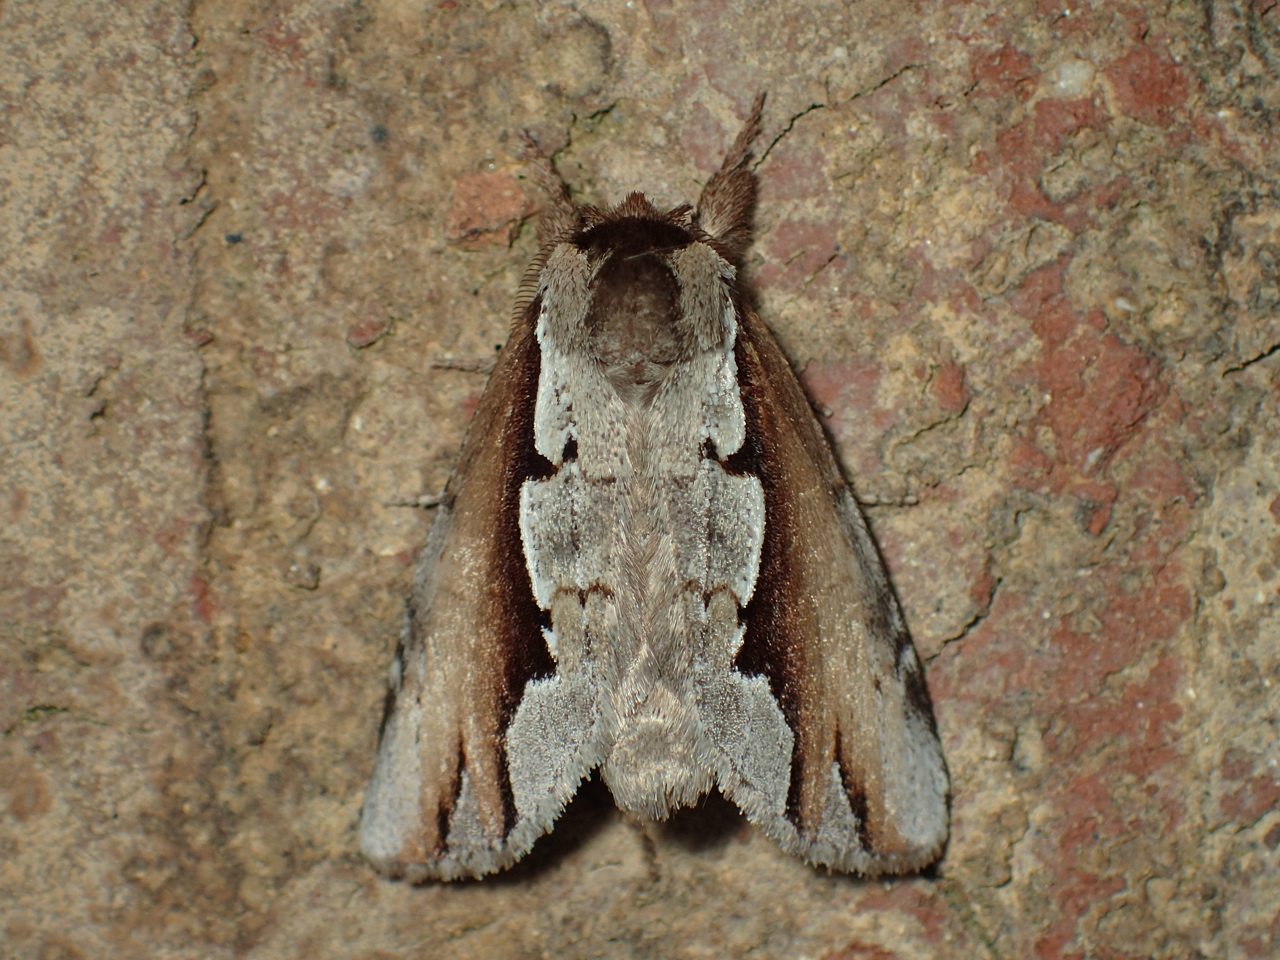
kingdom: Animalia
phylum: Arthropoda
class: Insecta
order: Lepidoptera
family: Notodontidae
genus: Nerice
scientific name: Nerice bidentata
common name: Double-toothed prominent
